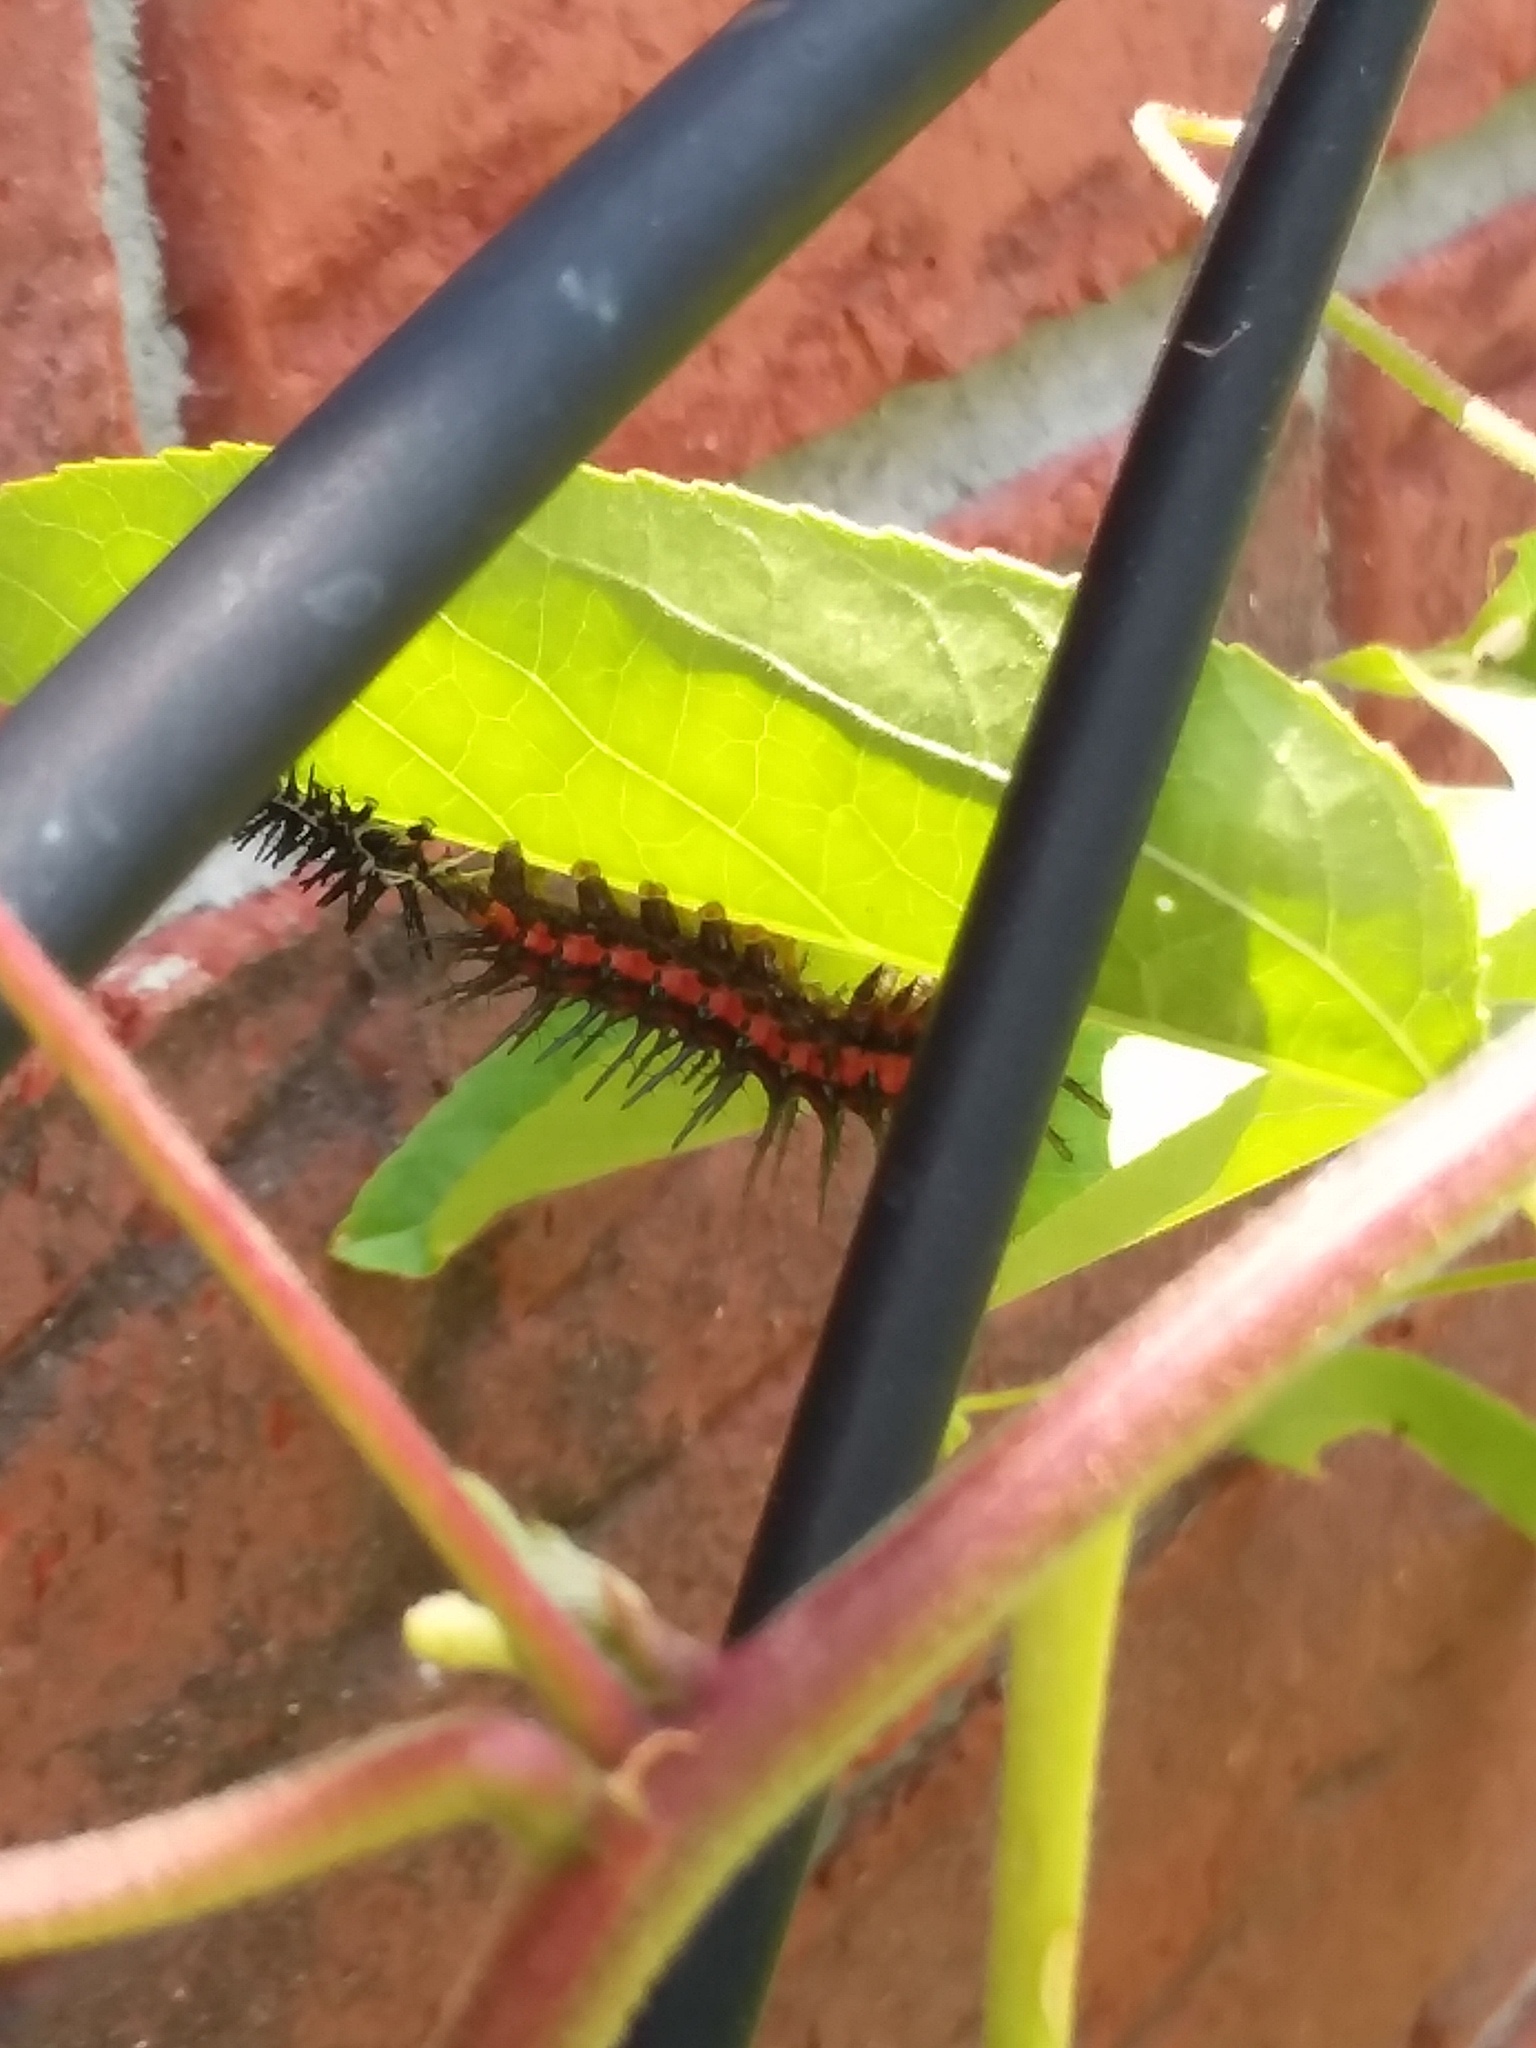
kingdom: Animalia
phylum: Arthropoda
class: Insecta
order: Lepidoptera
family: Nymphalidae
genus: Dione
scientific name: Dione vanillae
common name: Gulf fritillary
